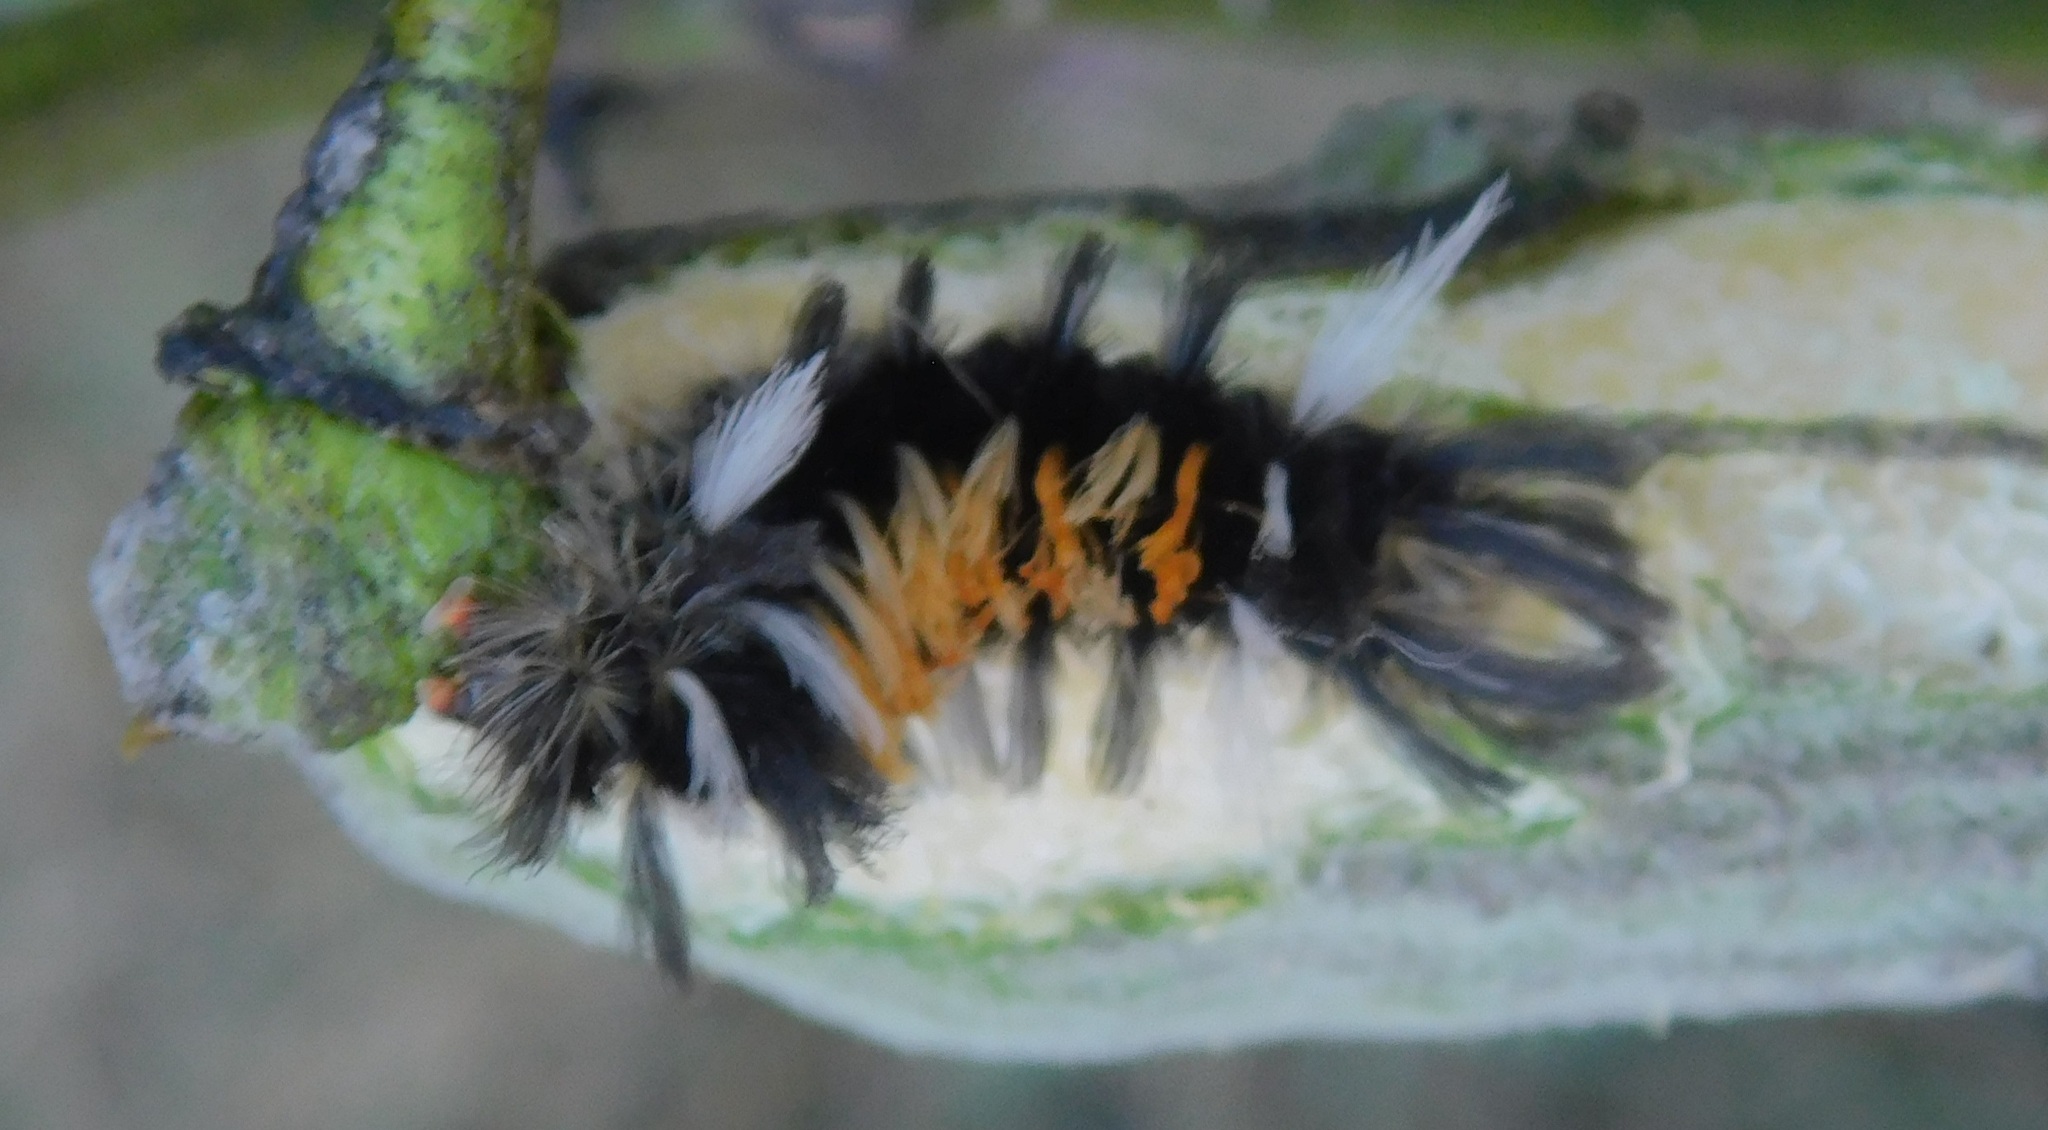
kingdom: Animalia
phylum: Arthropoda
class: Insecta
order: Lepidoptera
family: Erebidae
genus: Euchaetes
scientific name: Euchaetes egle
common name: Milkweed tussock moth
